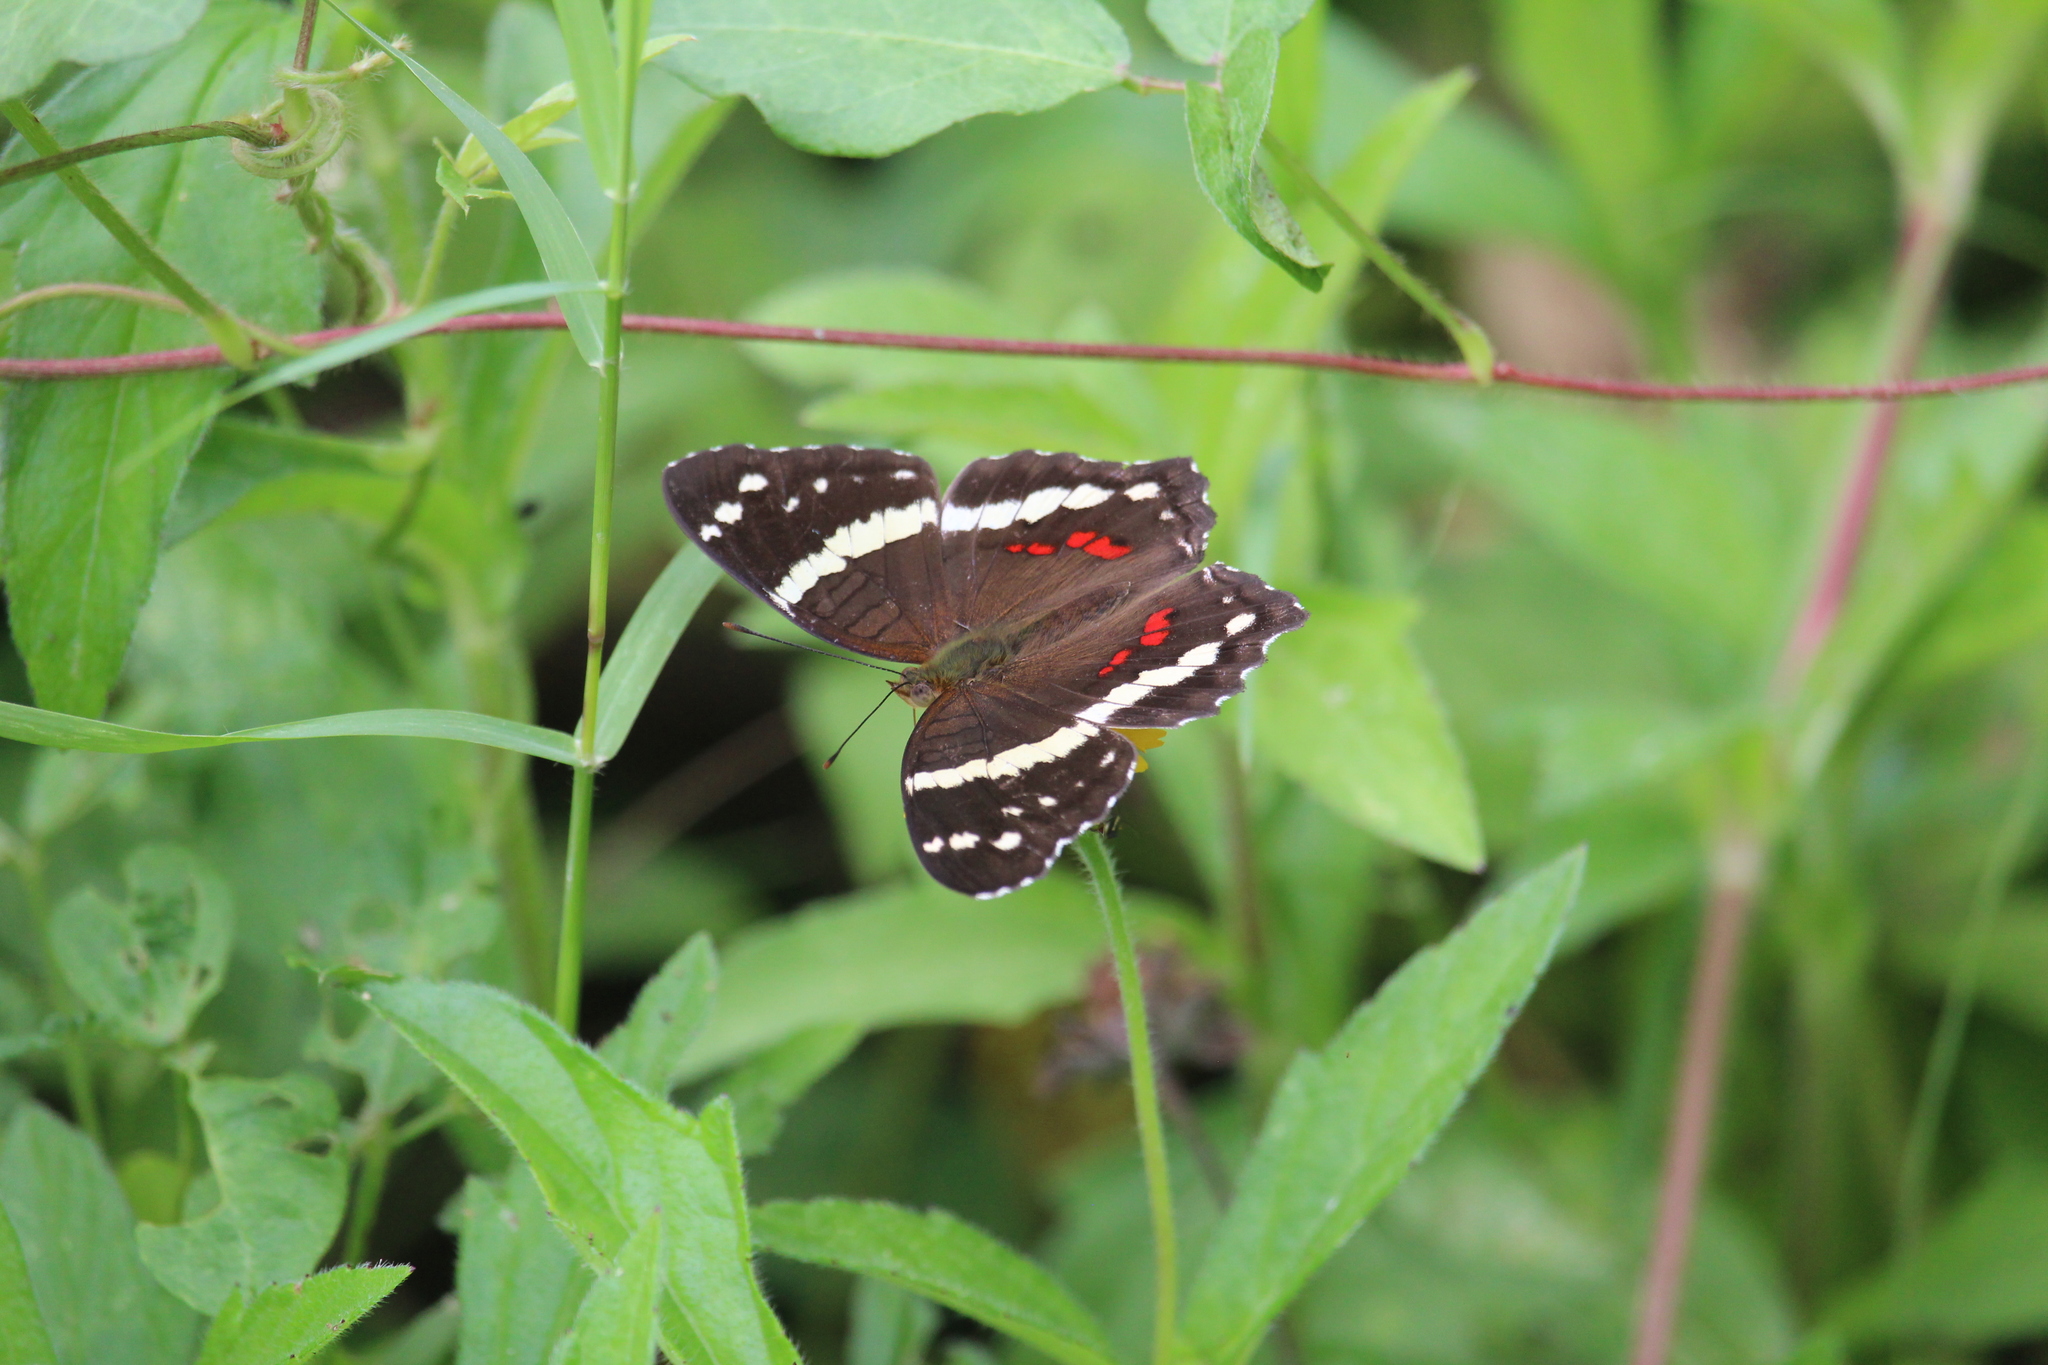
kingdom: Animalia
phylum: Arthropoda
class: Insecta
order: Lepidoptera
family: Nymphalidae
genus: Anartia
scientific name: Anartia fatima
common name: Banded peacock
